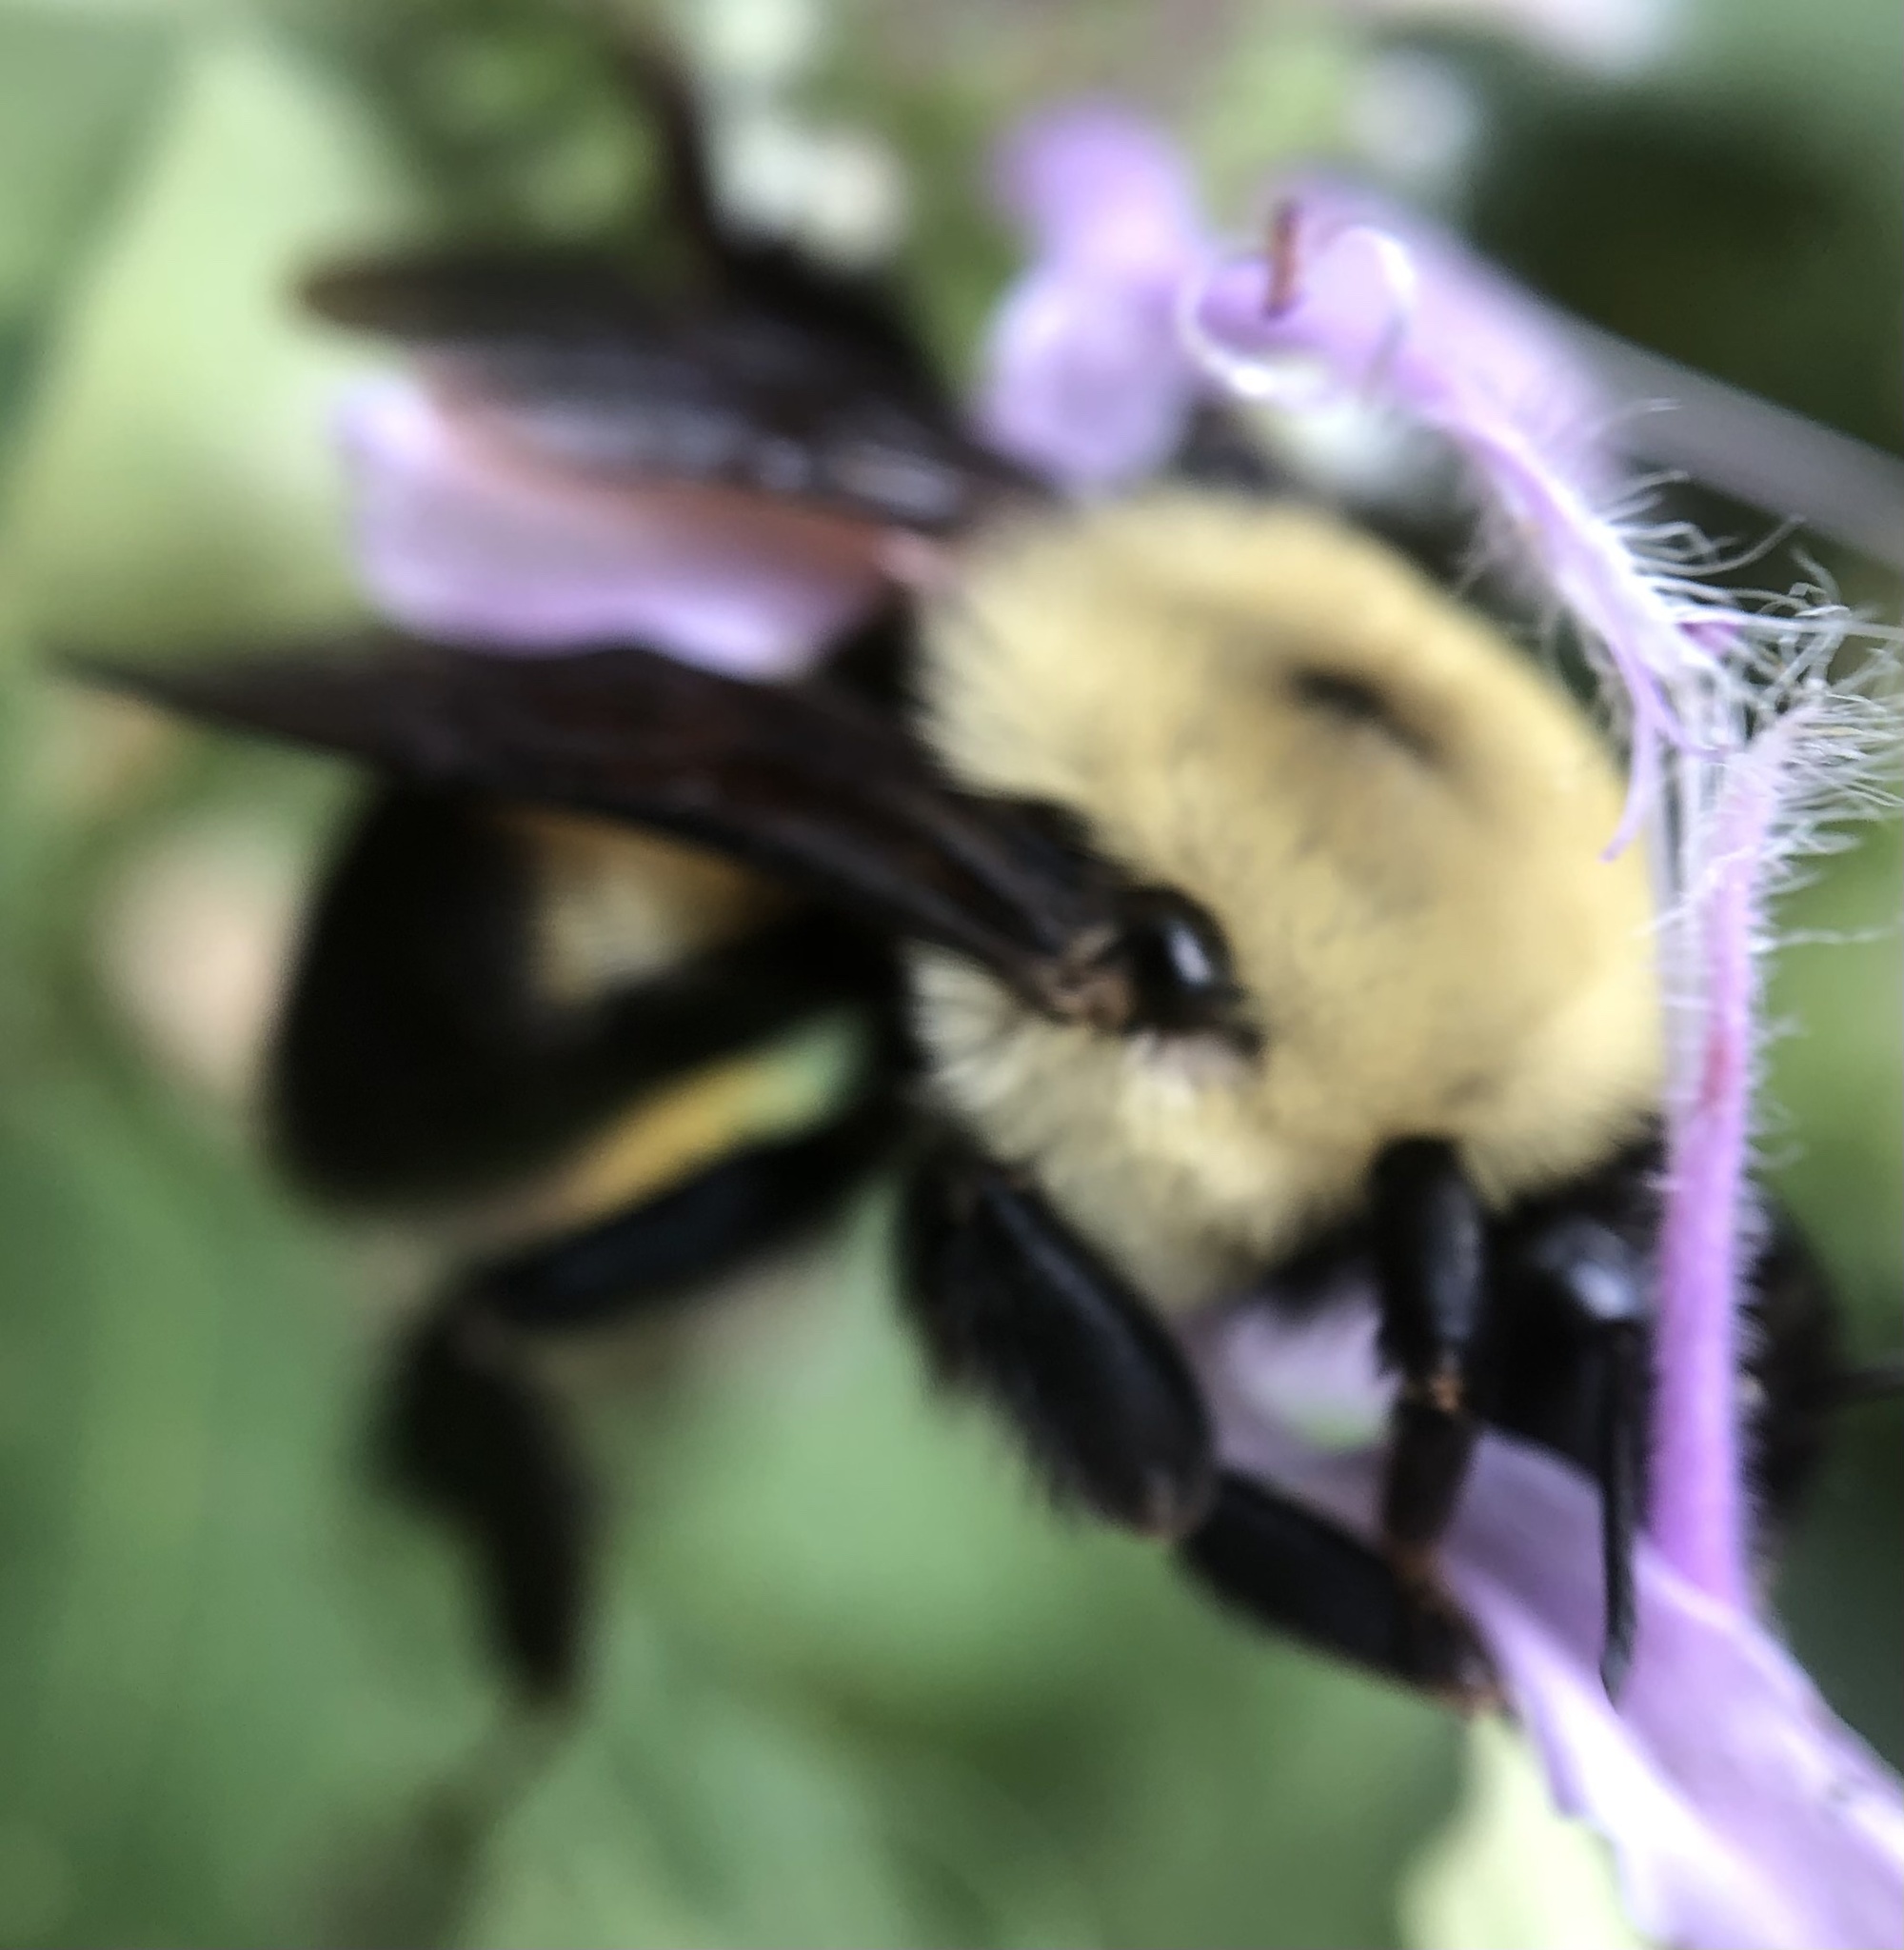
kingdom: Animalia
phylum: Arthropoda
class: Insecta
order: Hymenoptera
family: Apidae
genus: Bombus
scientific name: Bombus griseocollis
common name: Brown-belted bumble bee
